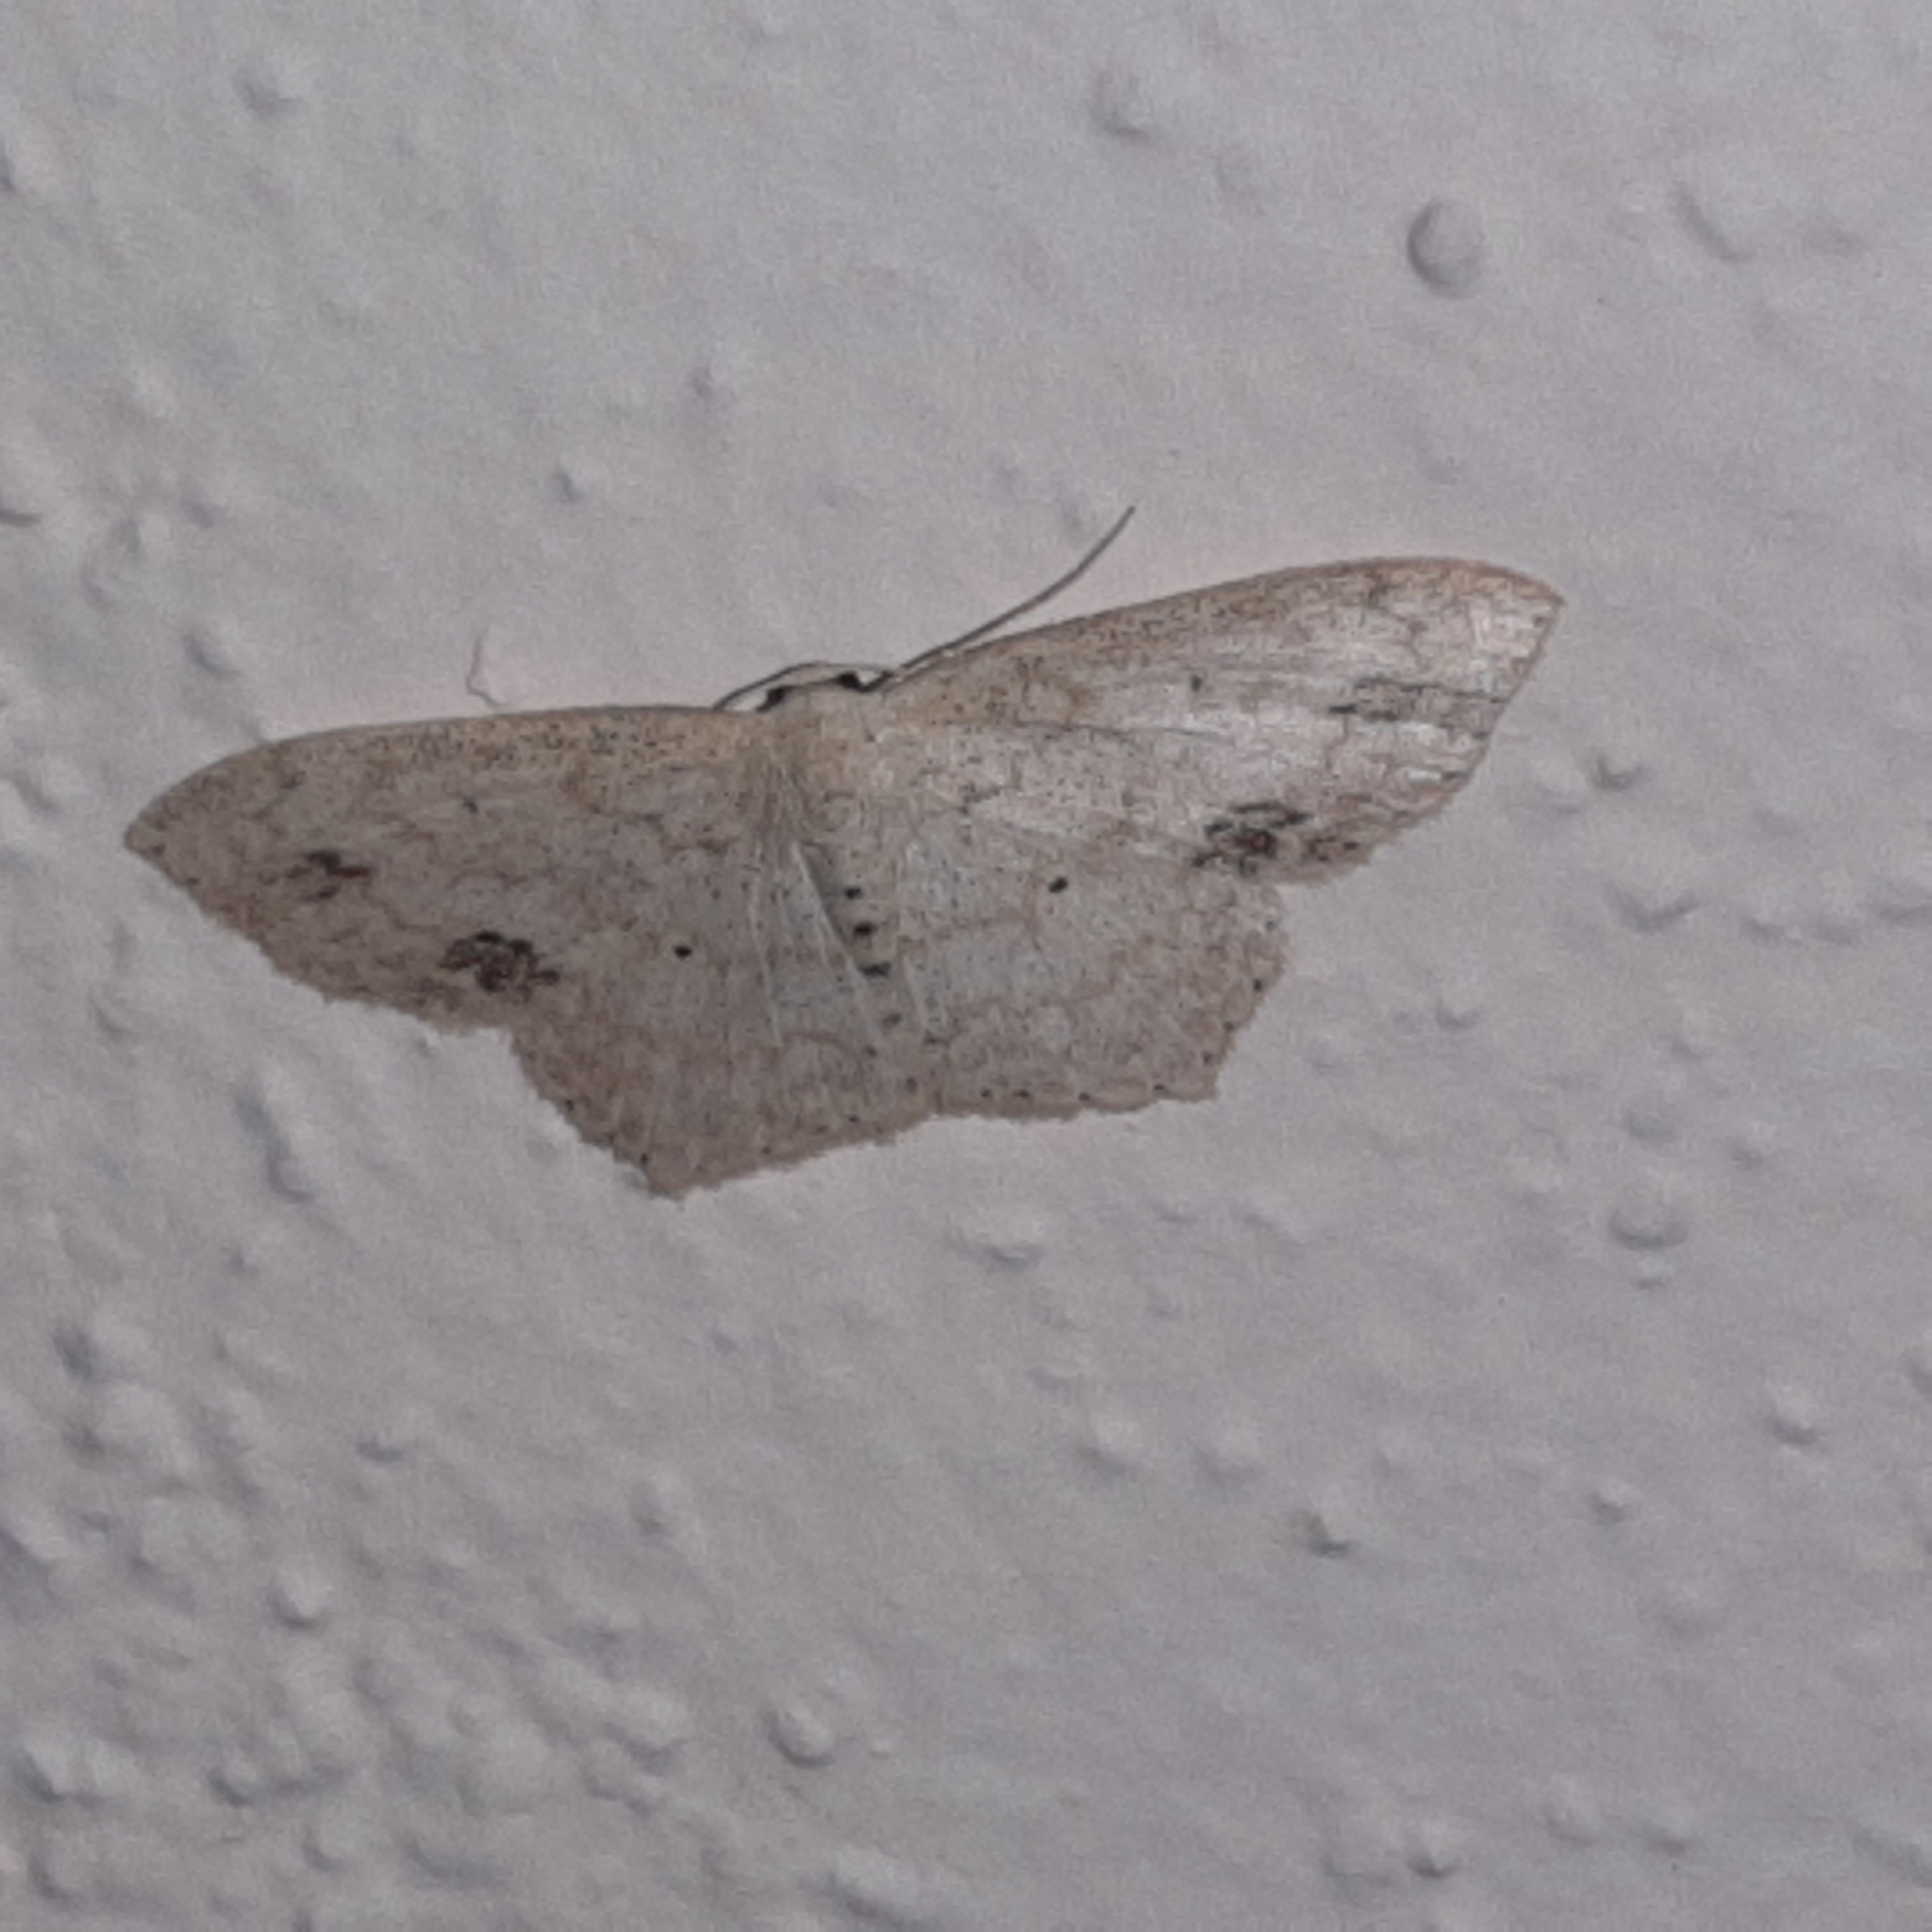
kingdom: Animalia
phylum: Arthropoda
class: Insecta
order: Lepidoptera
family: Geometridae
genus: Scopula
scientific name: Scopula phyxelis
